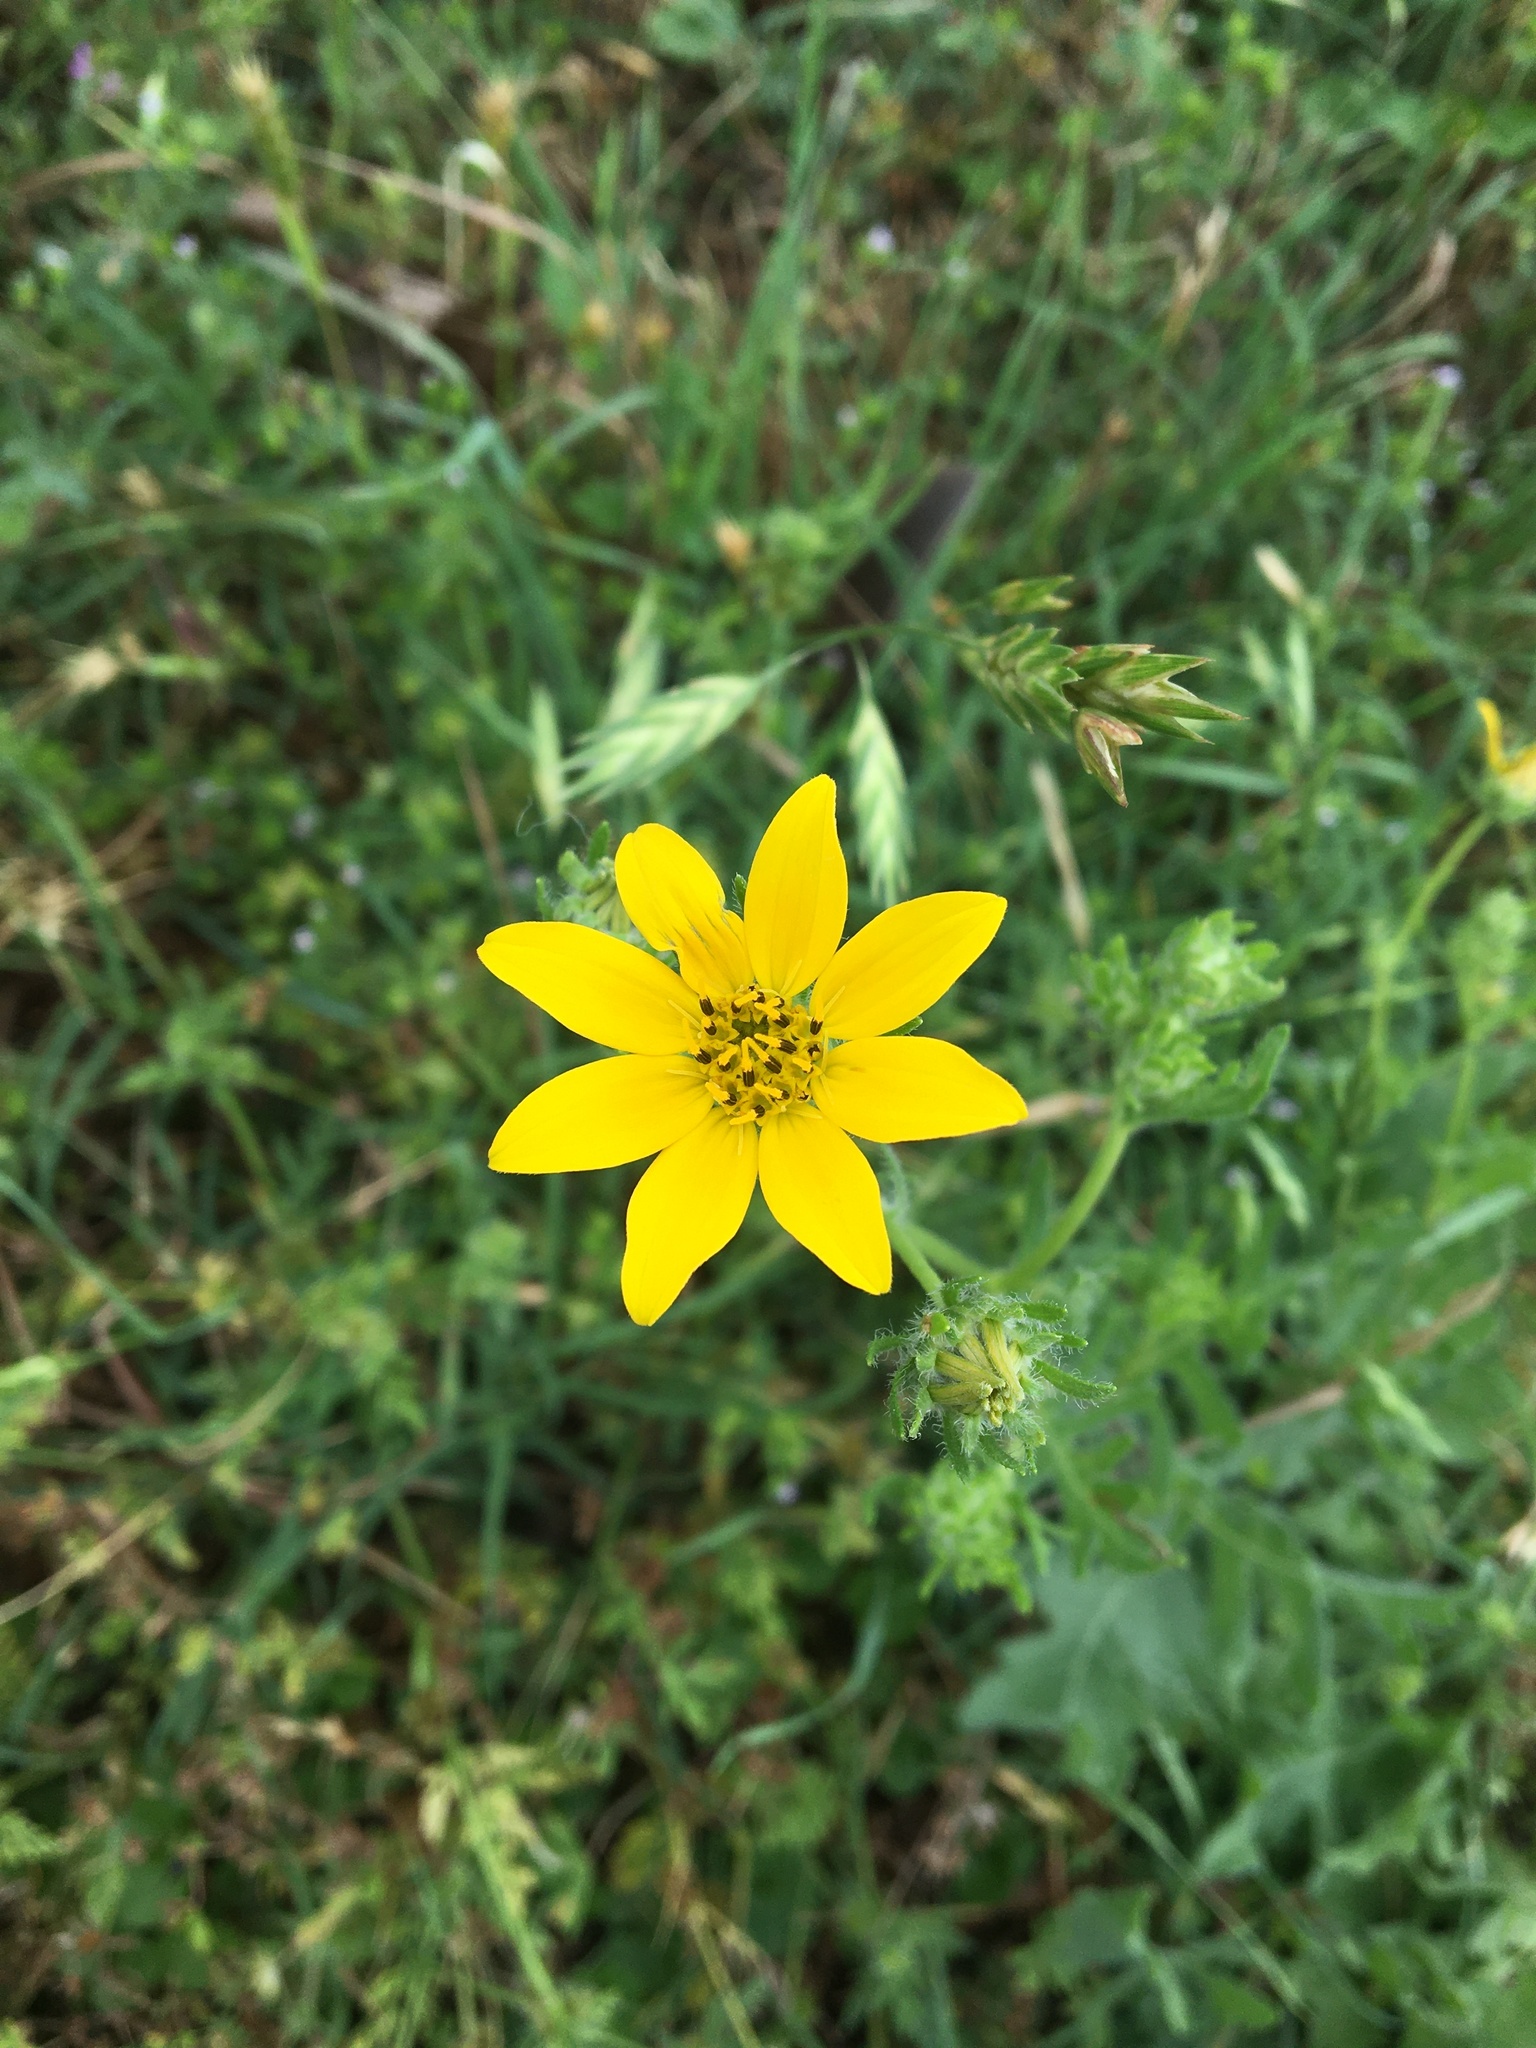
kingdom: Plantae
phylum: Tracheophyta
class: Magnoliopsida
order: Asterales
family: Asteraceae
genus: Engelmannia
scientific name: Engelmannia peristenia
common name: Engelmann's daisy
